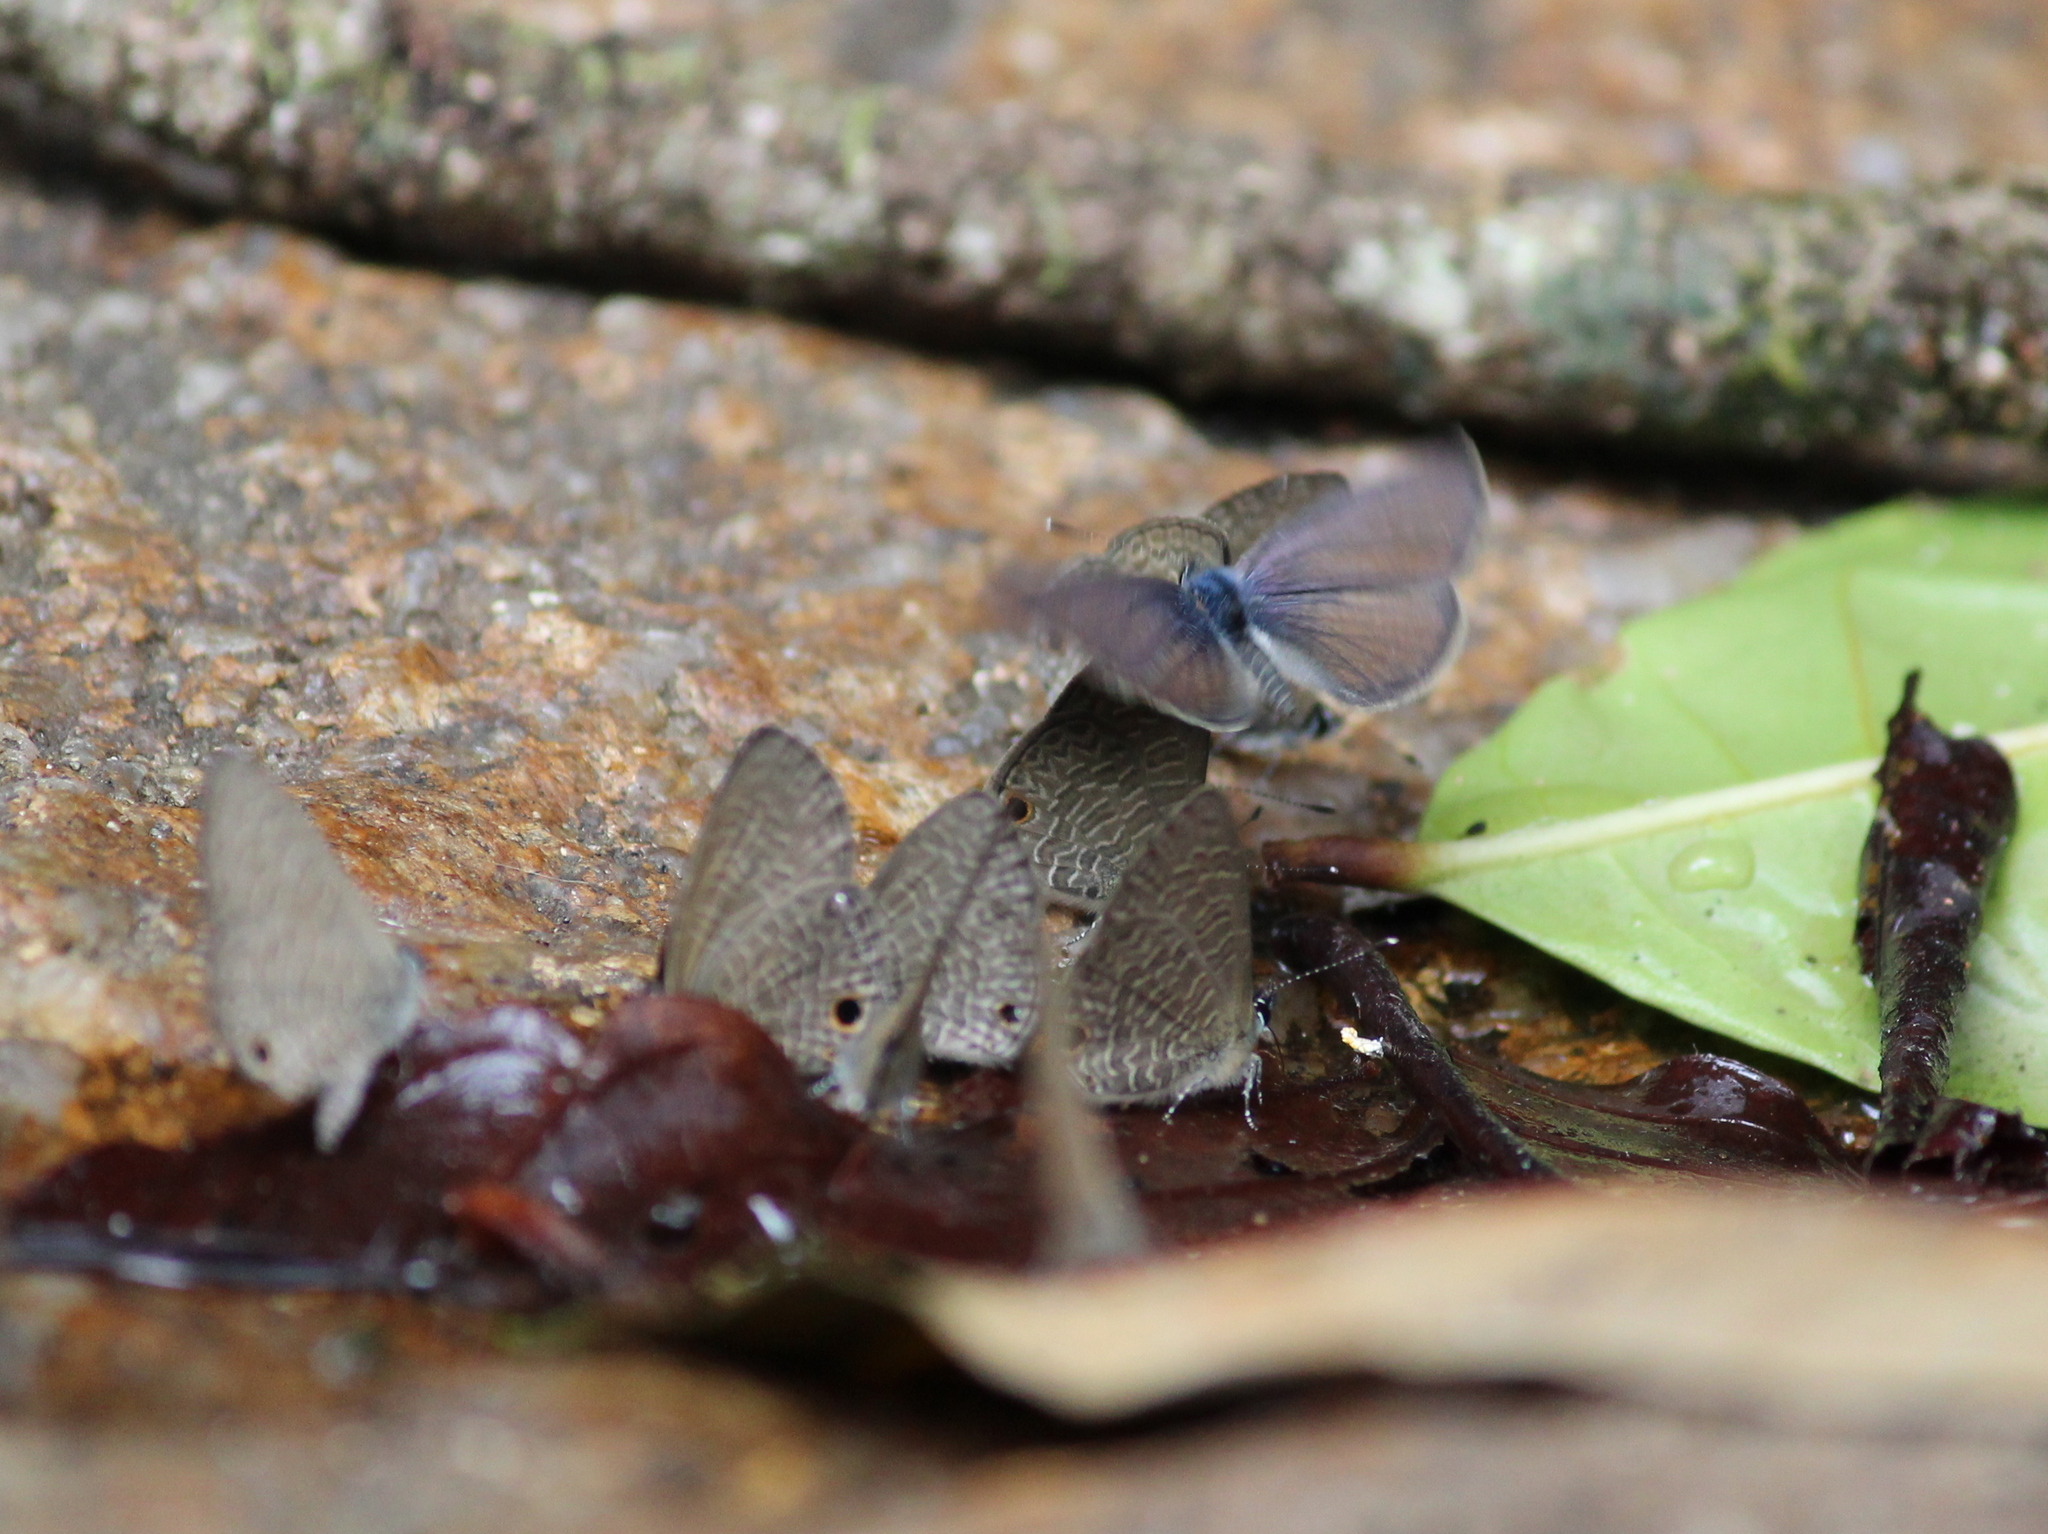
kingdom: Animalia
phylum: Arthropoda
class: Insecta
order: Lepidoptera
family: Lycaenidae
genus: Prosotas
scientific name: Prosotas dubiosa
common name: Tailless lineblue
